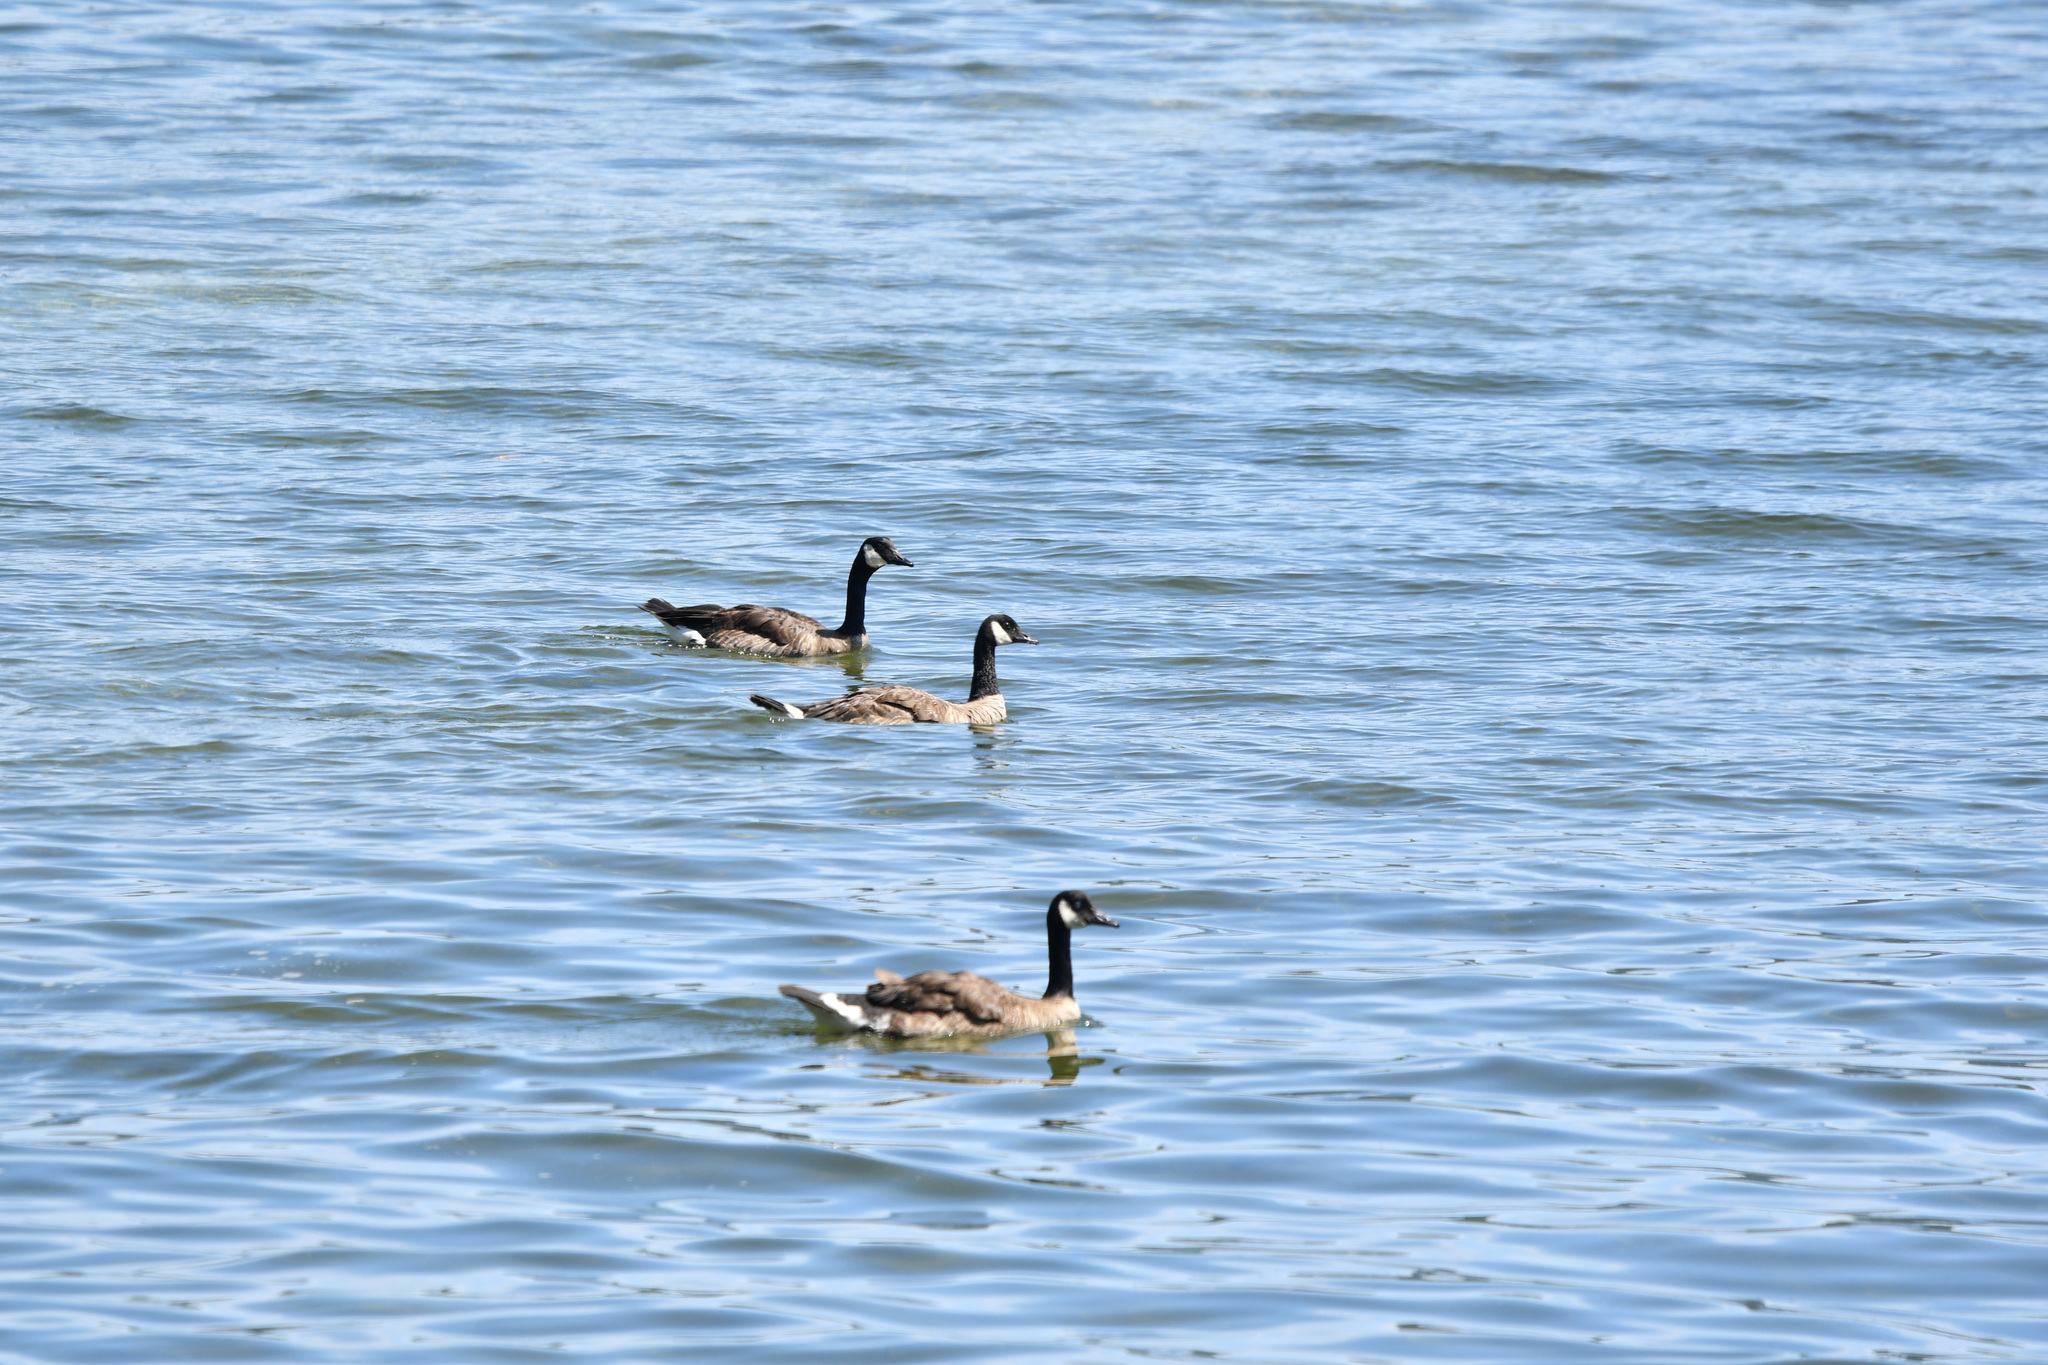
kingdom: Animalia
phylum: Chordata
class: Aves
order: Anseriformes
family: Anatidae
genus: Branta
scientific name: Branta canadensis
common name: Canada goose
